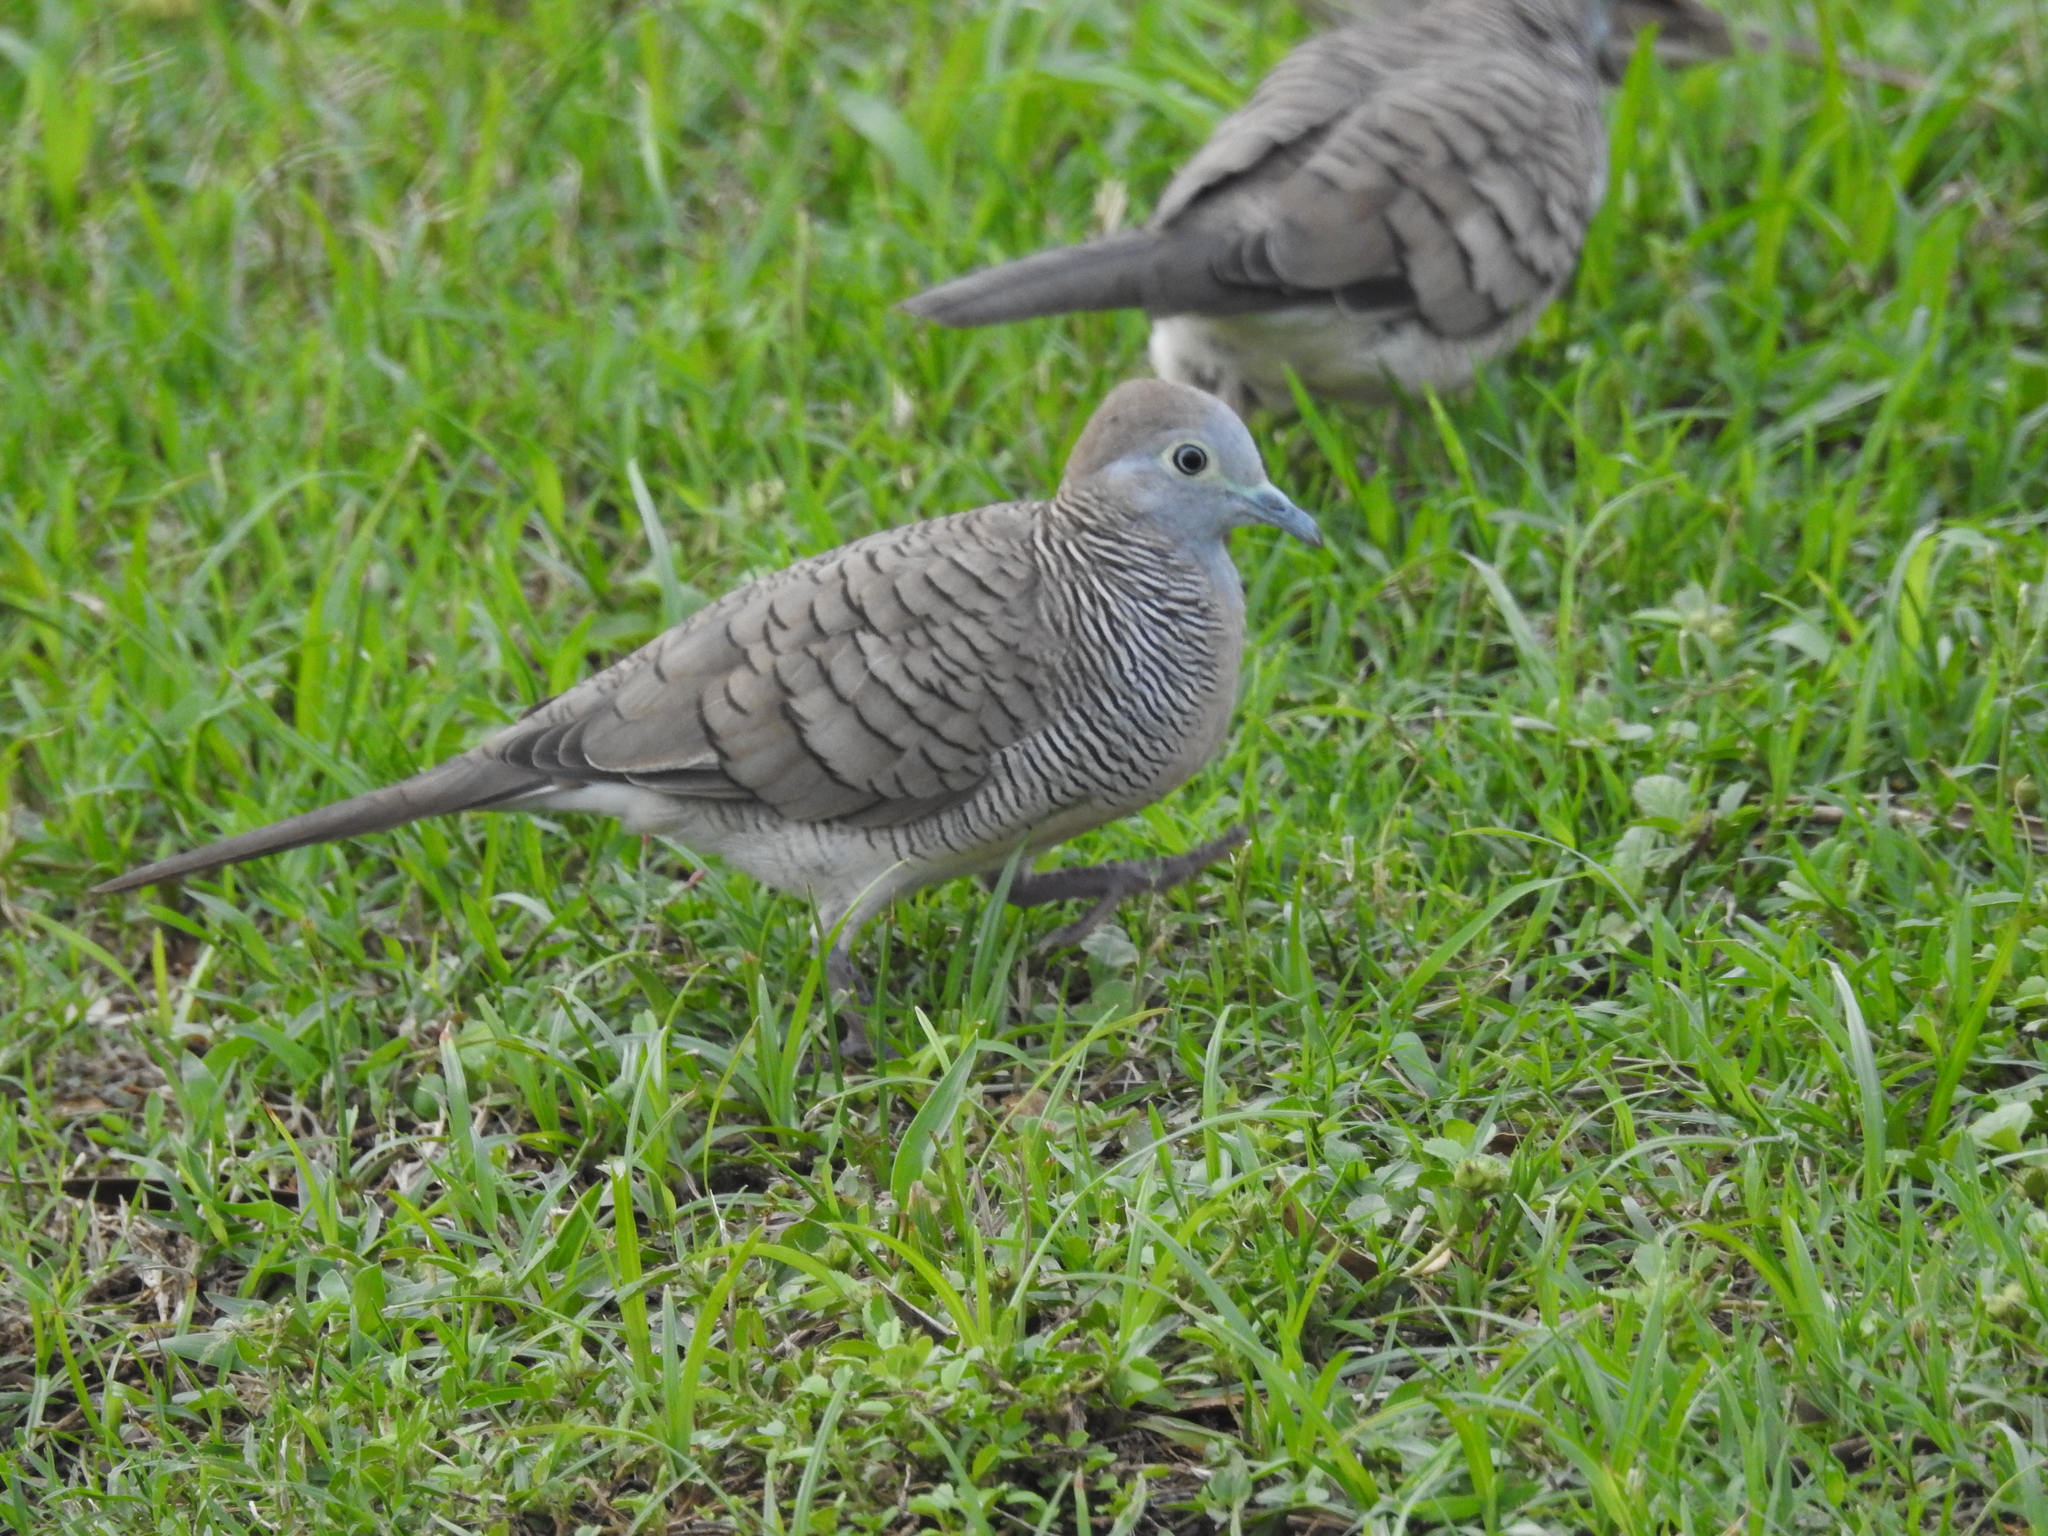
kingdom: Animalia
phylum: Chordata
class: Aves
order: Columbiformes
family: Columbidae
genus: Geopelia
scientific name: Geopelia striata
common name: Zebra dove
